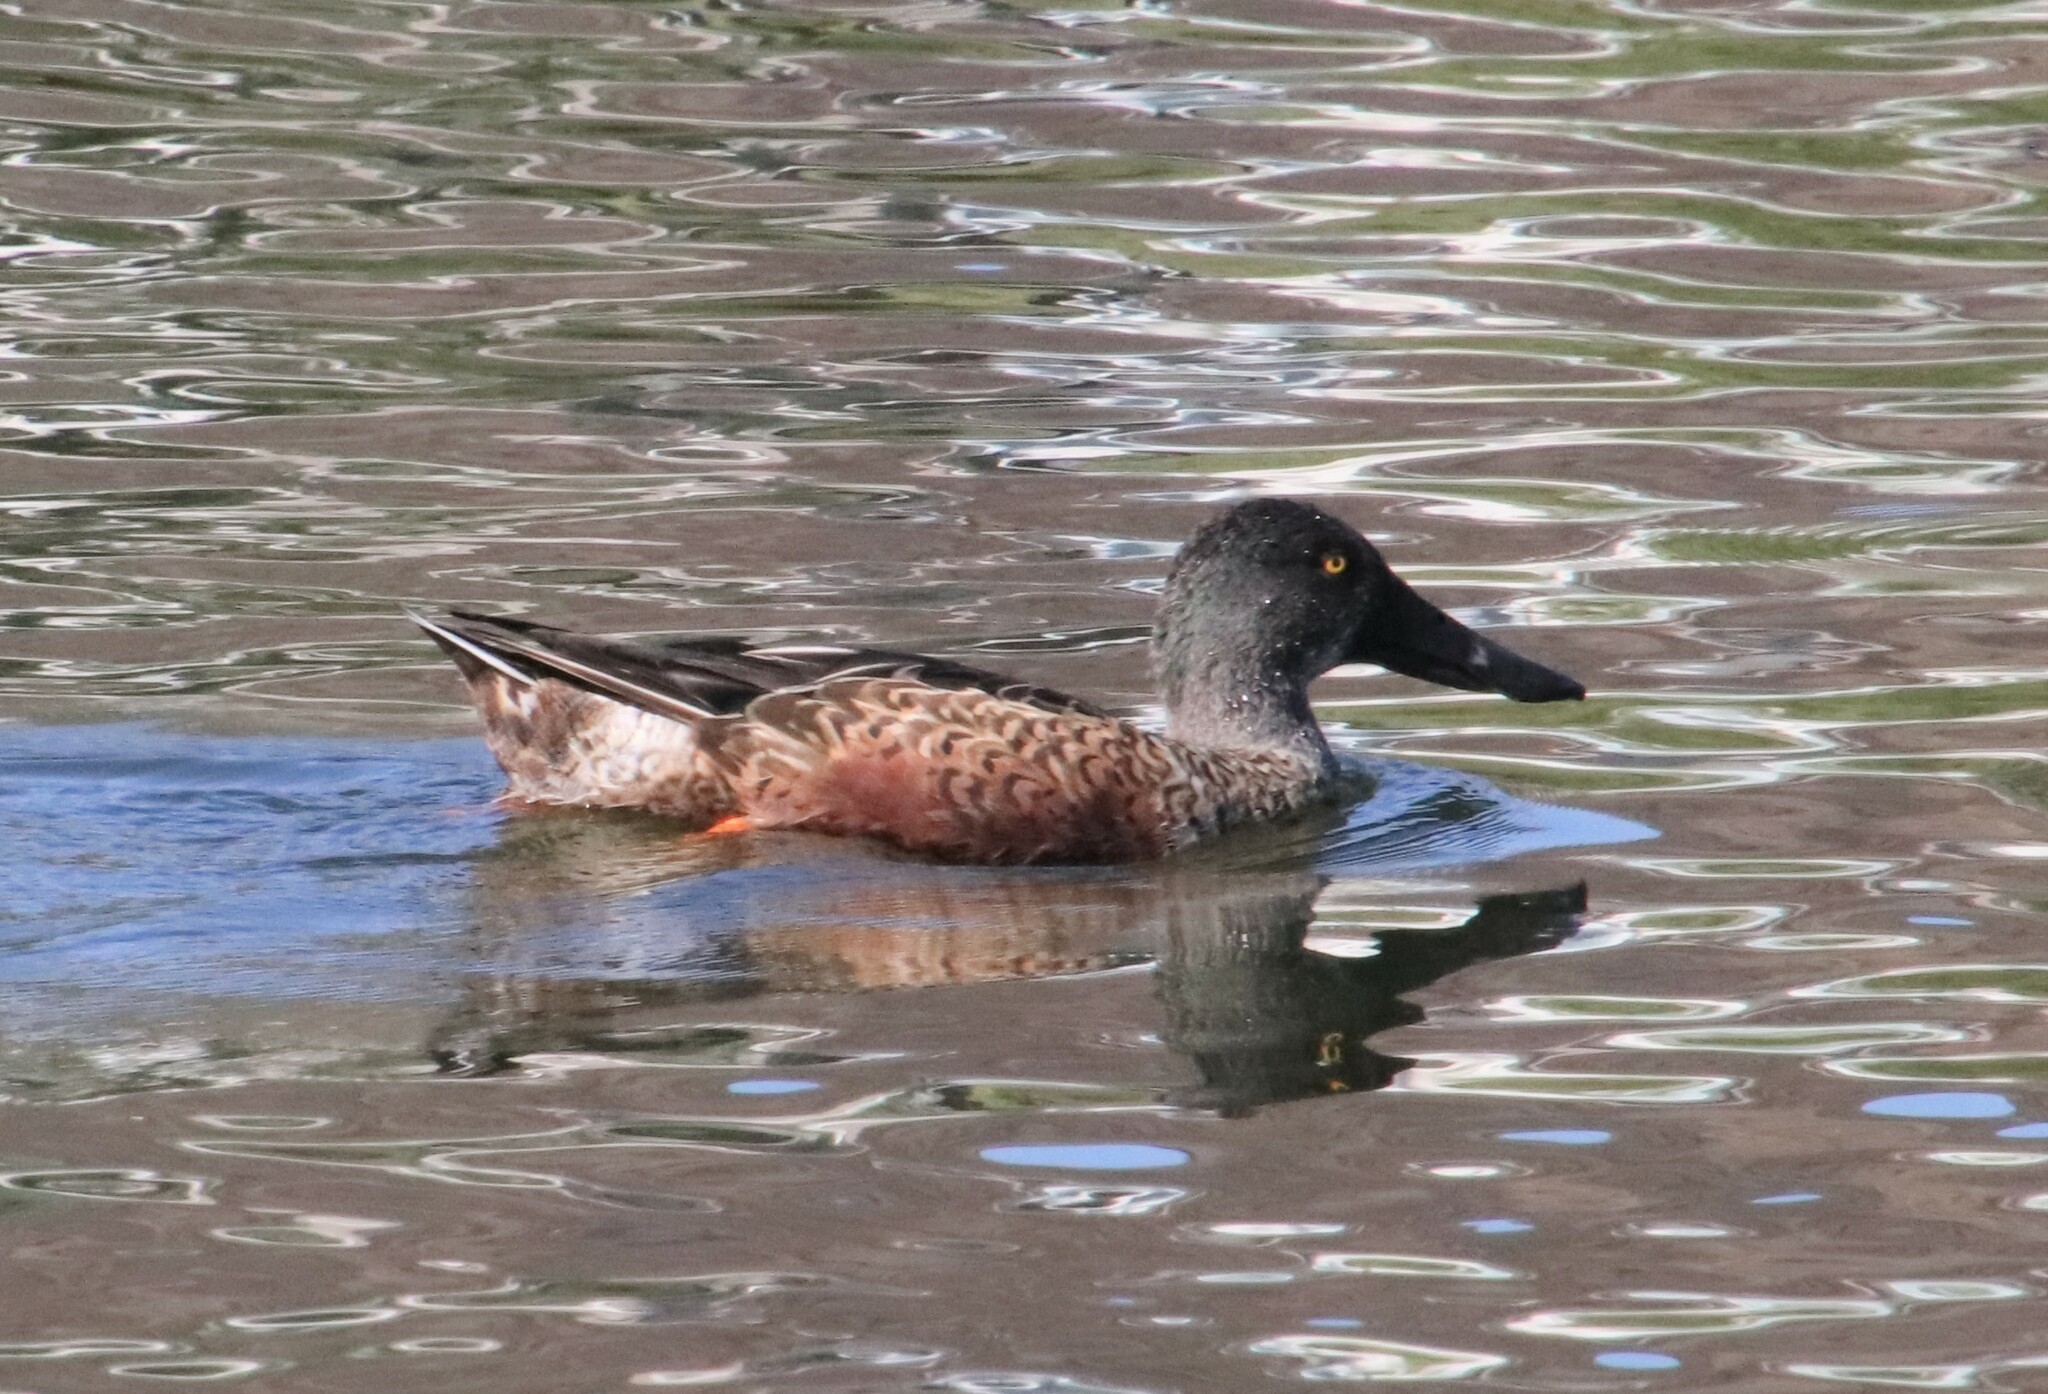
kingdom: Animalia
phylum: Chordata
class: Aves
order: Anseriformes
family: Anatidae
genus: Spatula
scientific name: Spatula clypeata
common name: Northern shoveler
